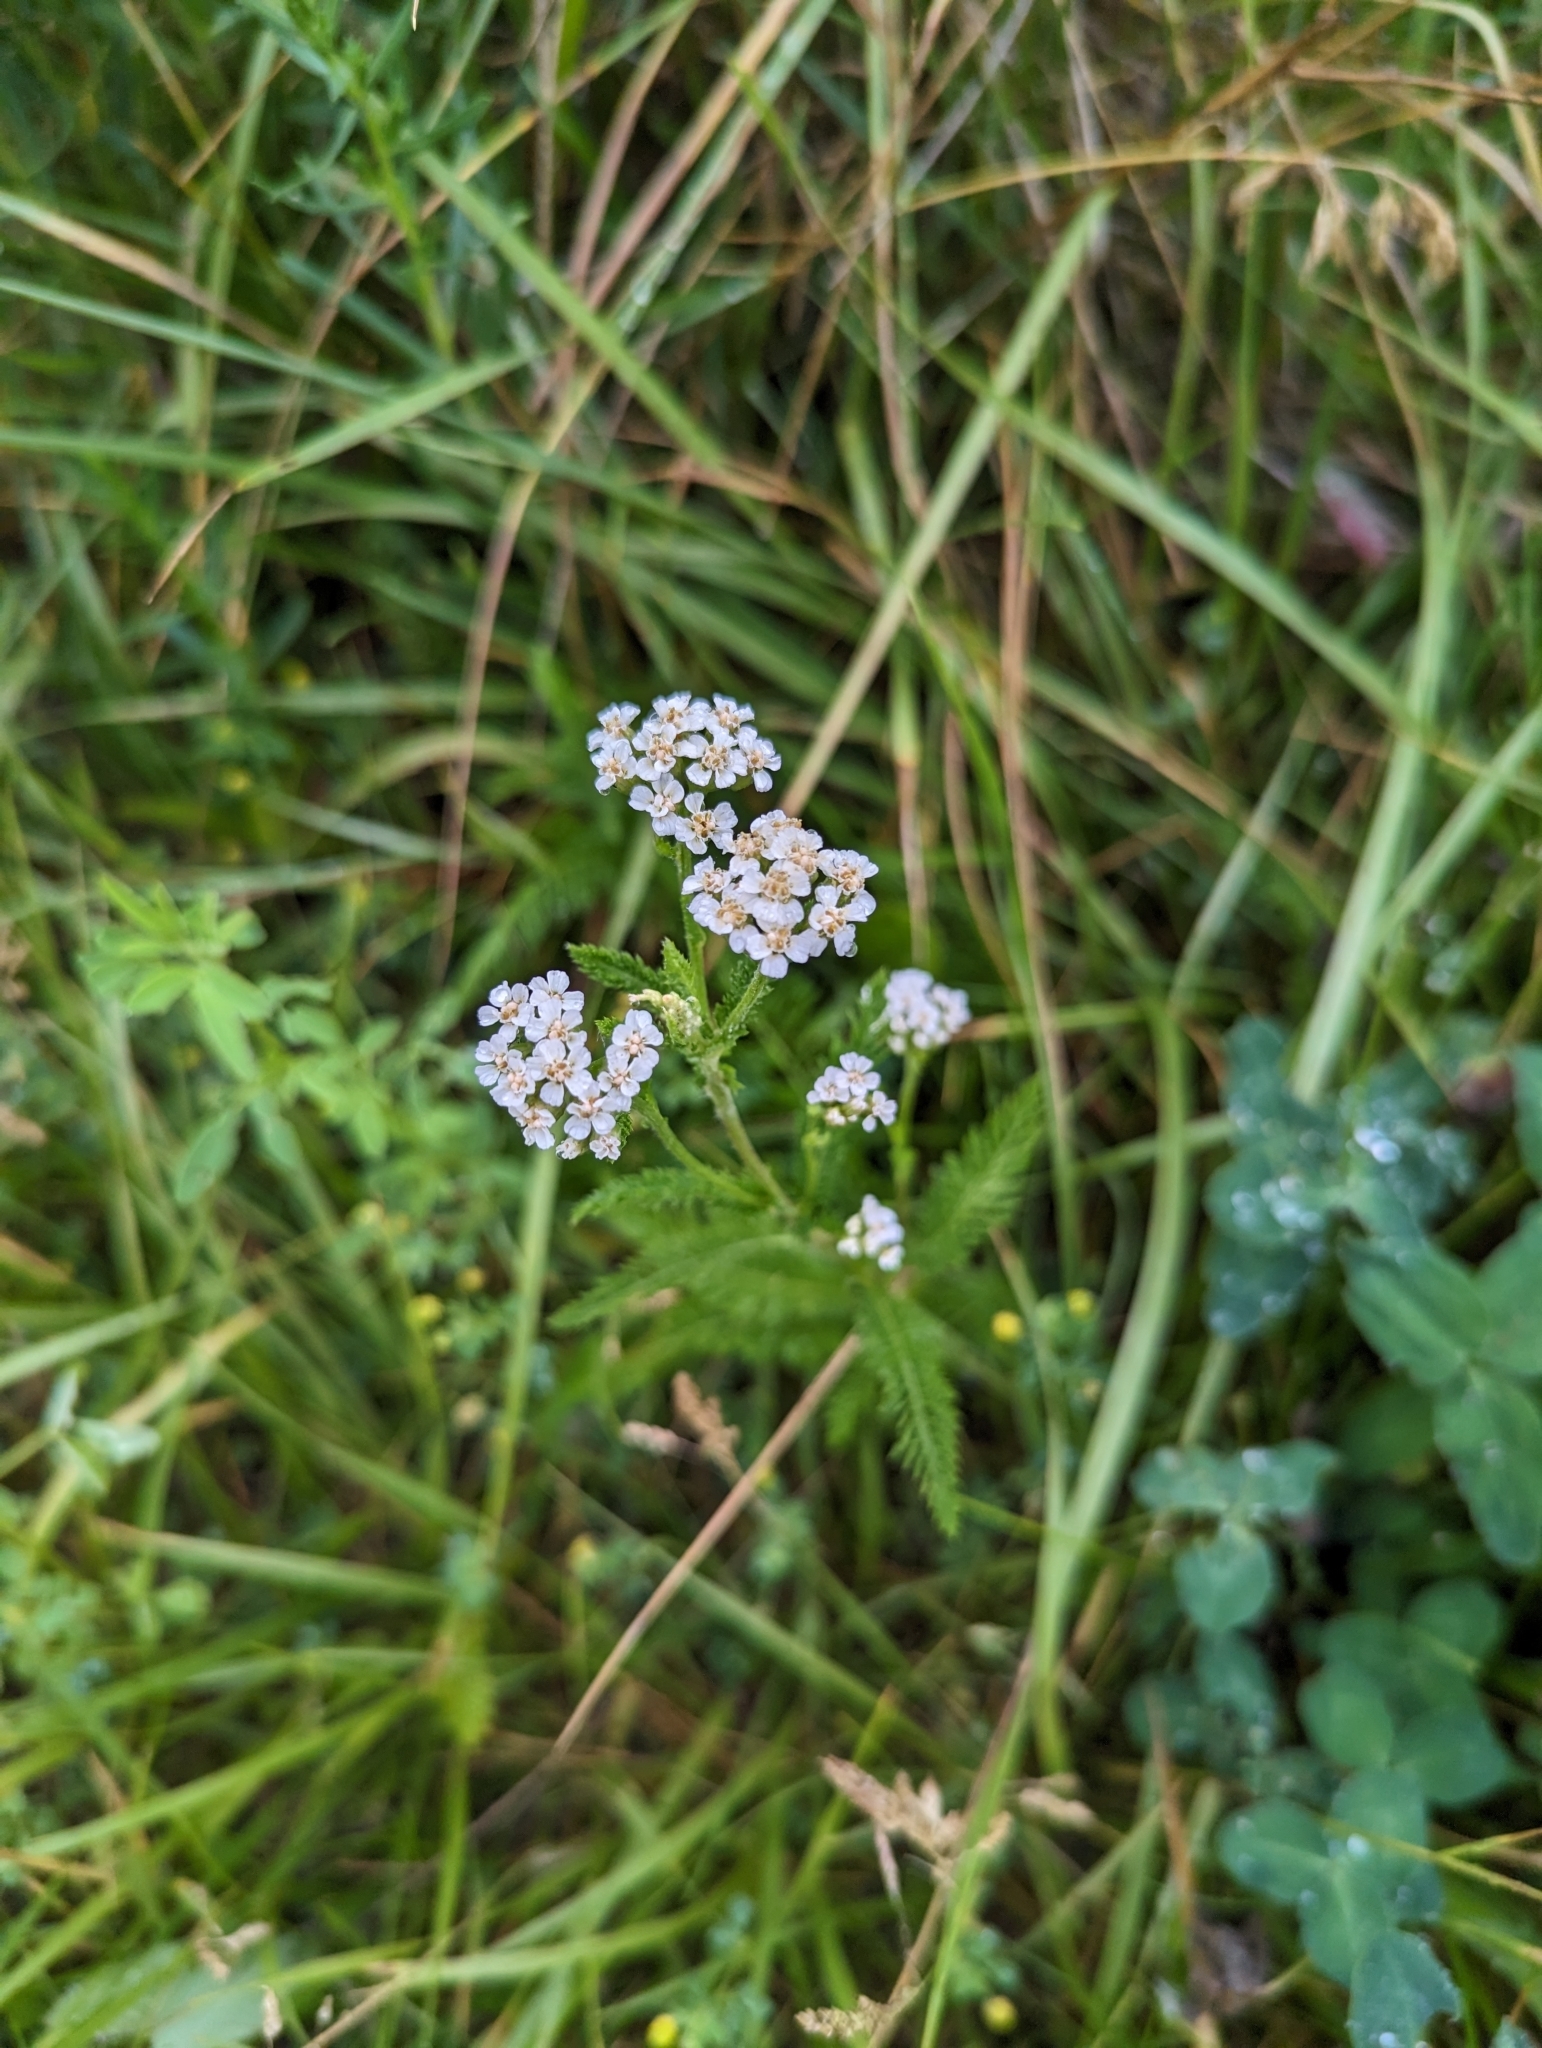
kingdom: Plantae
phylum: Tracheophyta
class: Magnoliopsida
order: Asterales
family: Asteraceae
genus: Achillea
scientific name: Achillea millefolium
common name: Yarrow
